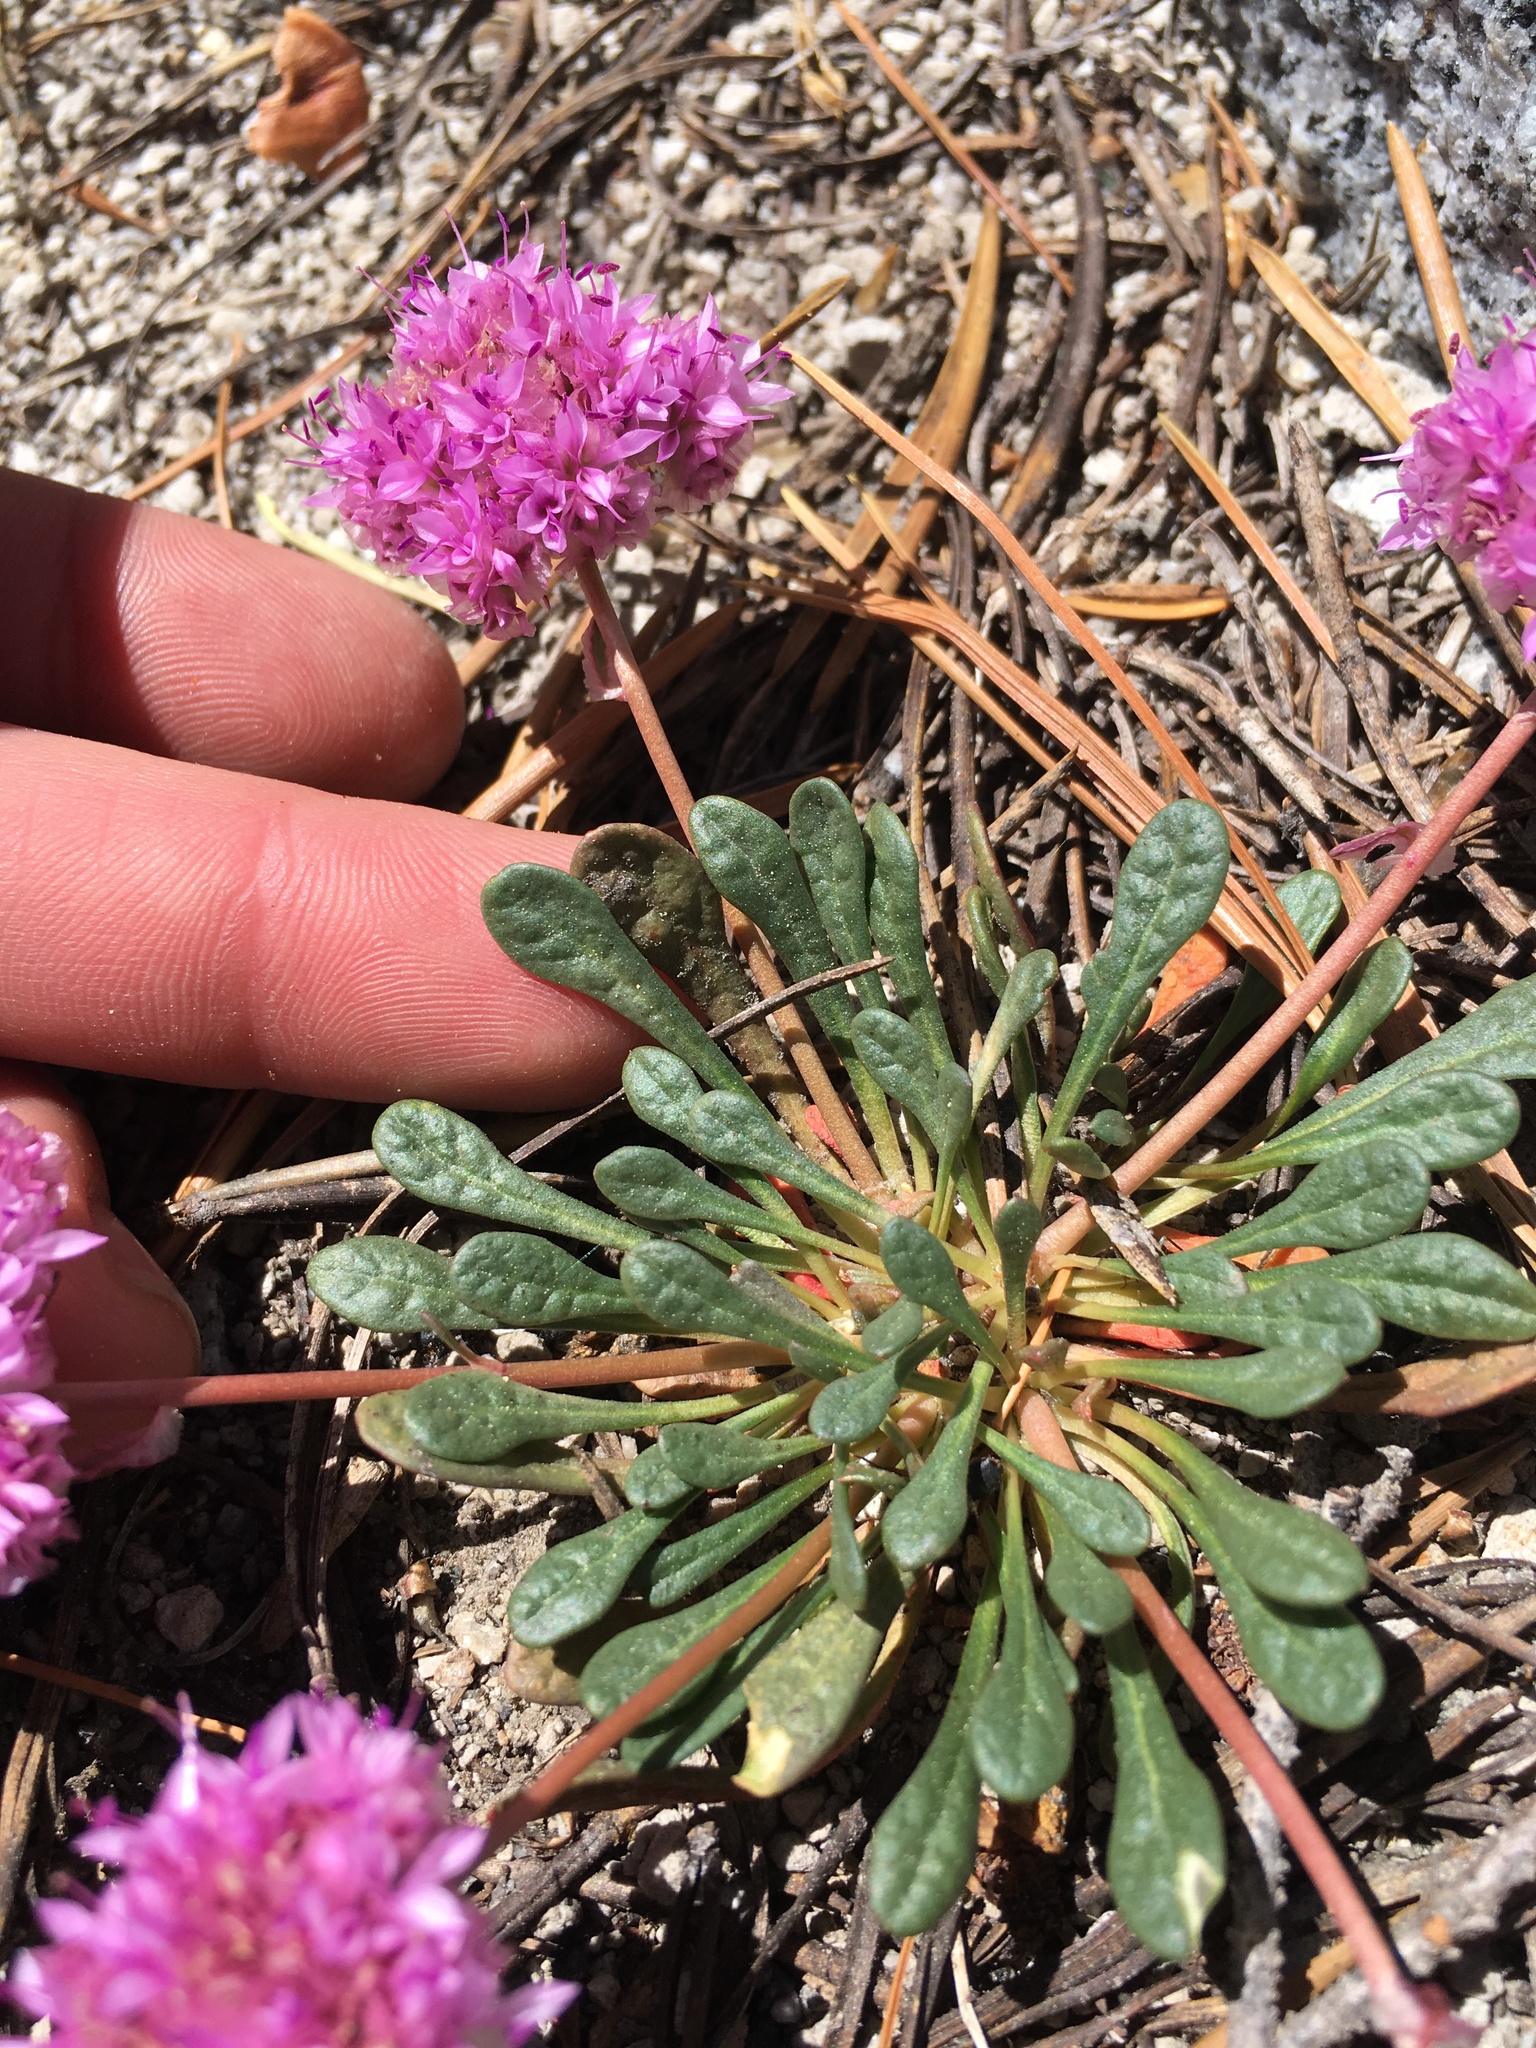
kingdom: Plantae
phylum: Tracheophyta
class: Magnoliopsida
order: Caryophyllales
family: Montiaceae
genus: Calyptridium
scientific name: Calyptridium monospermum
